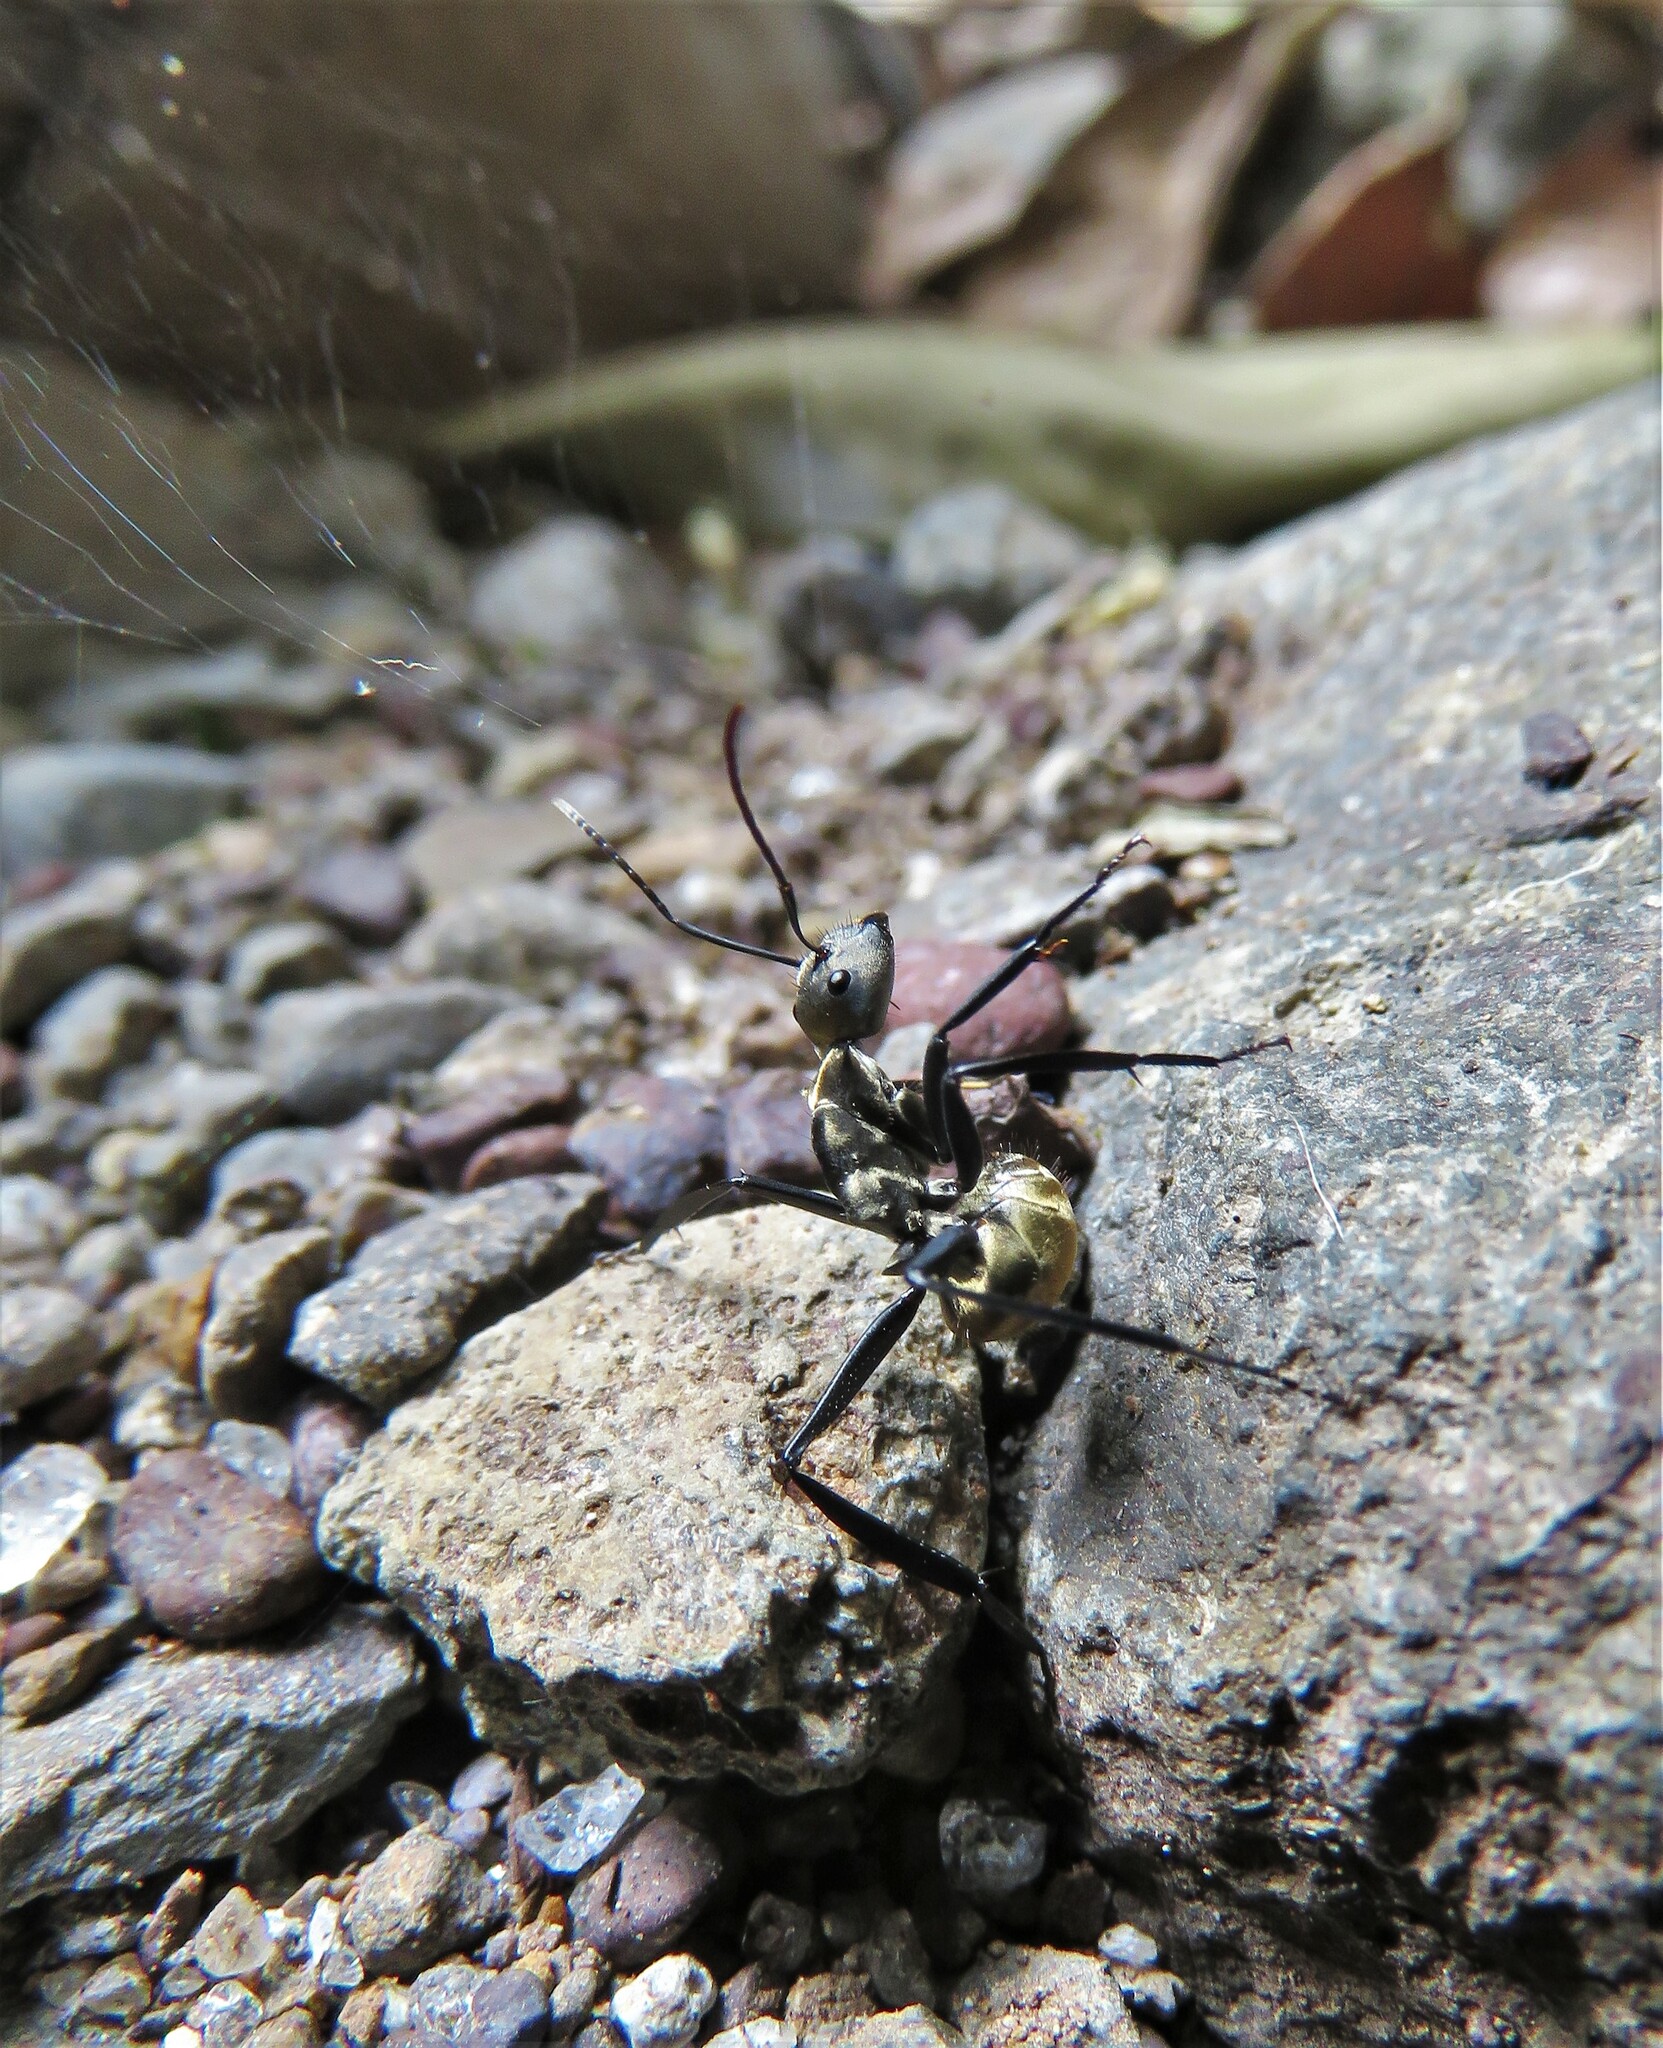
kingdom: Animalia
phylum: Arthropoda
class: Insecta
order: Hymenoptera
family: Formicidae
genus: Camponotus
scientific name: Camponotus sericeiventris
